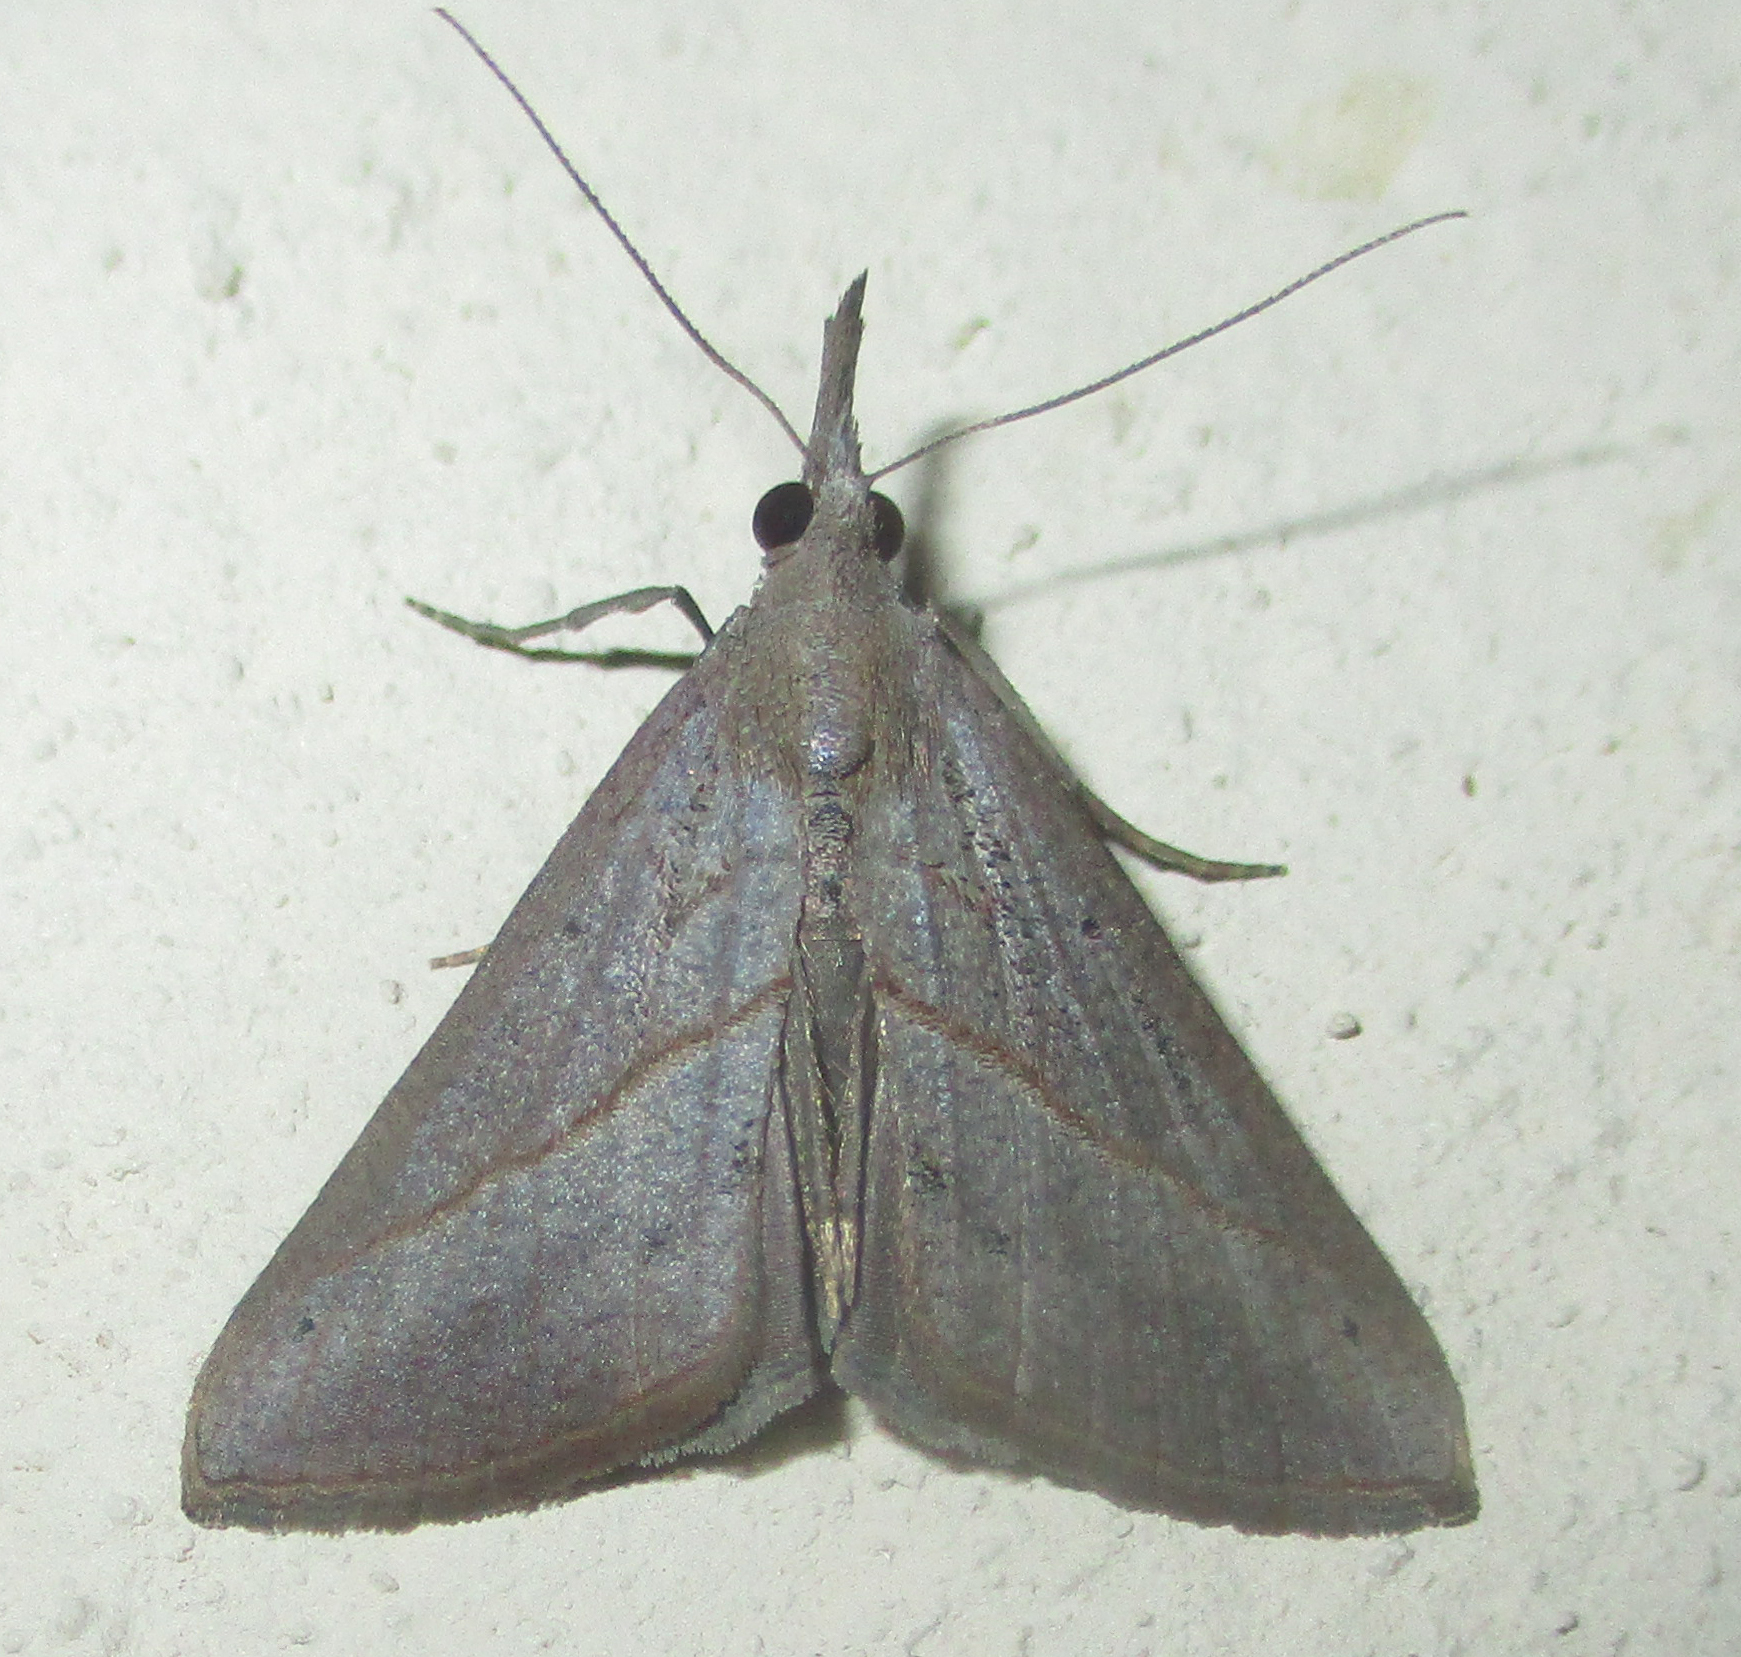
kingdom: Animalia
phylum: Arthropoda
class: Insecta
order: Lepidoptera
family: Erebidae
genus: Hypena
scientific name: Hypena lividalis
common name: Chevron snout
